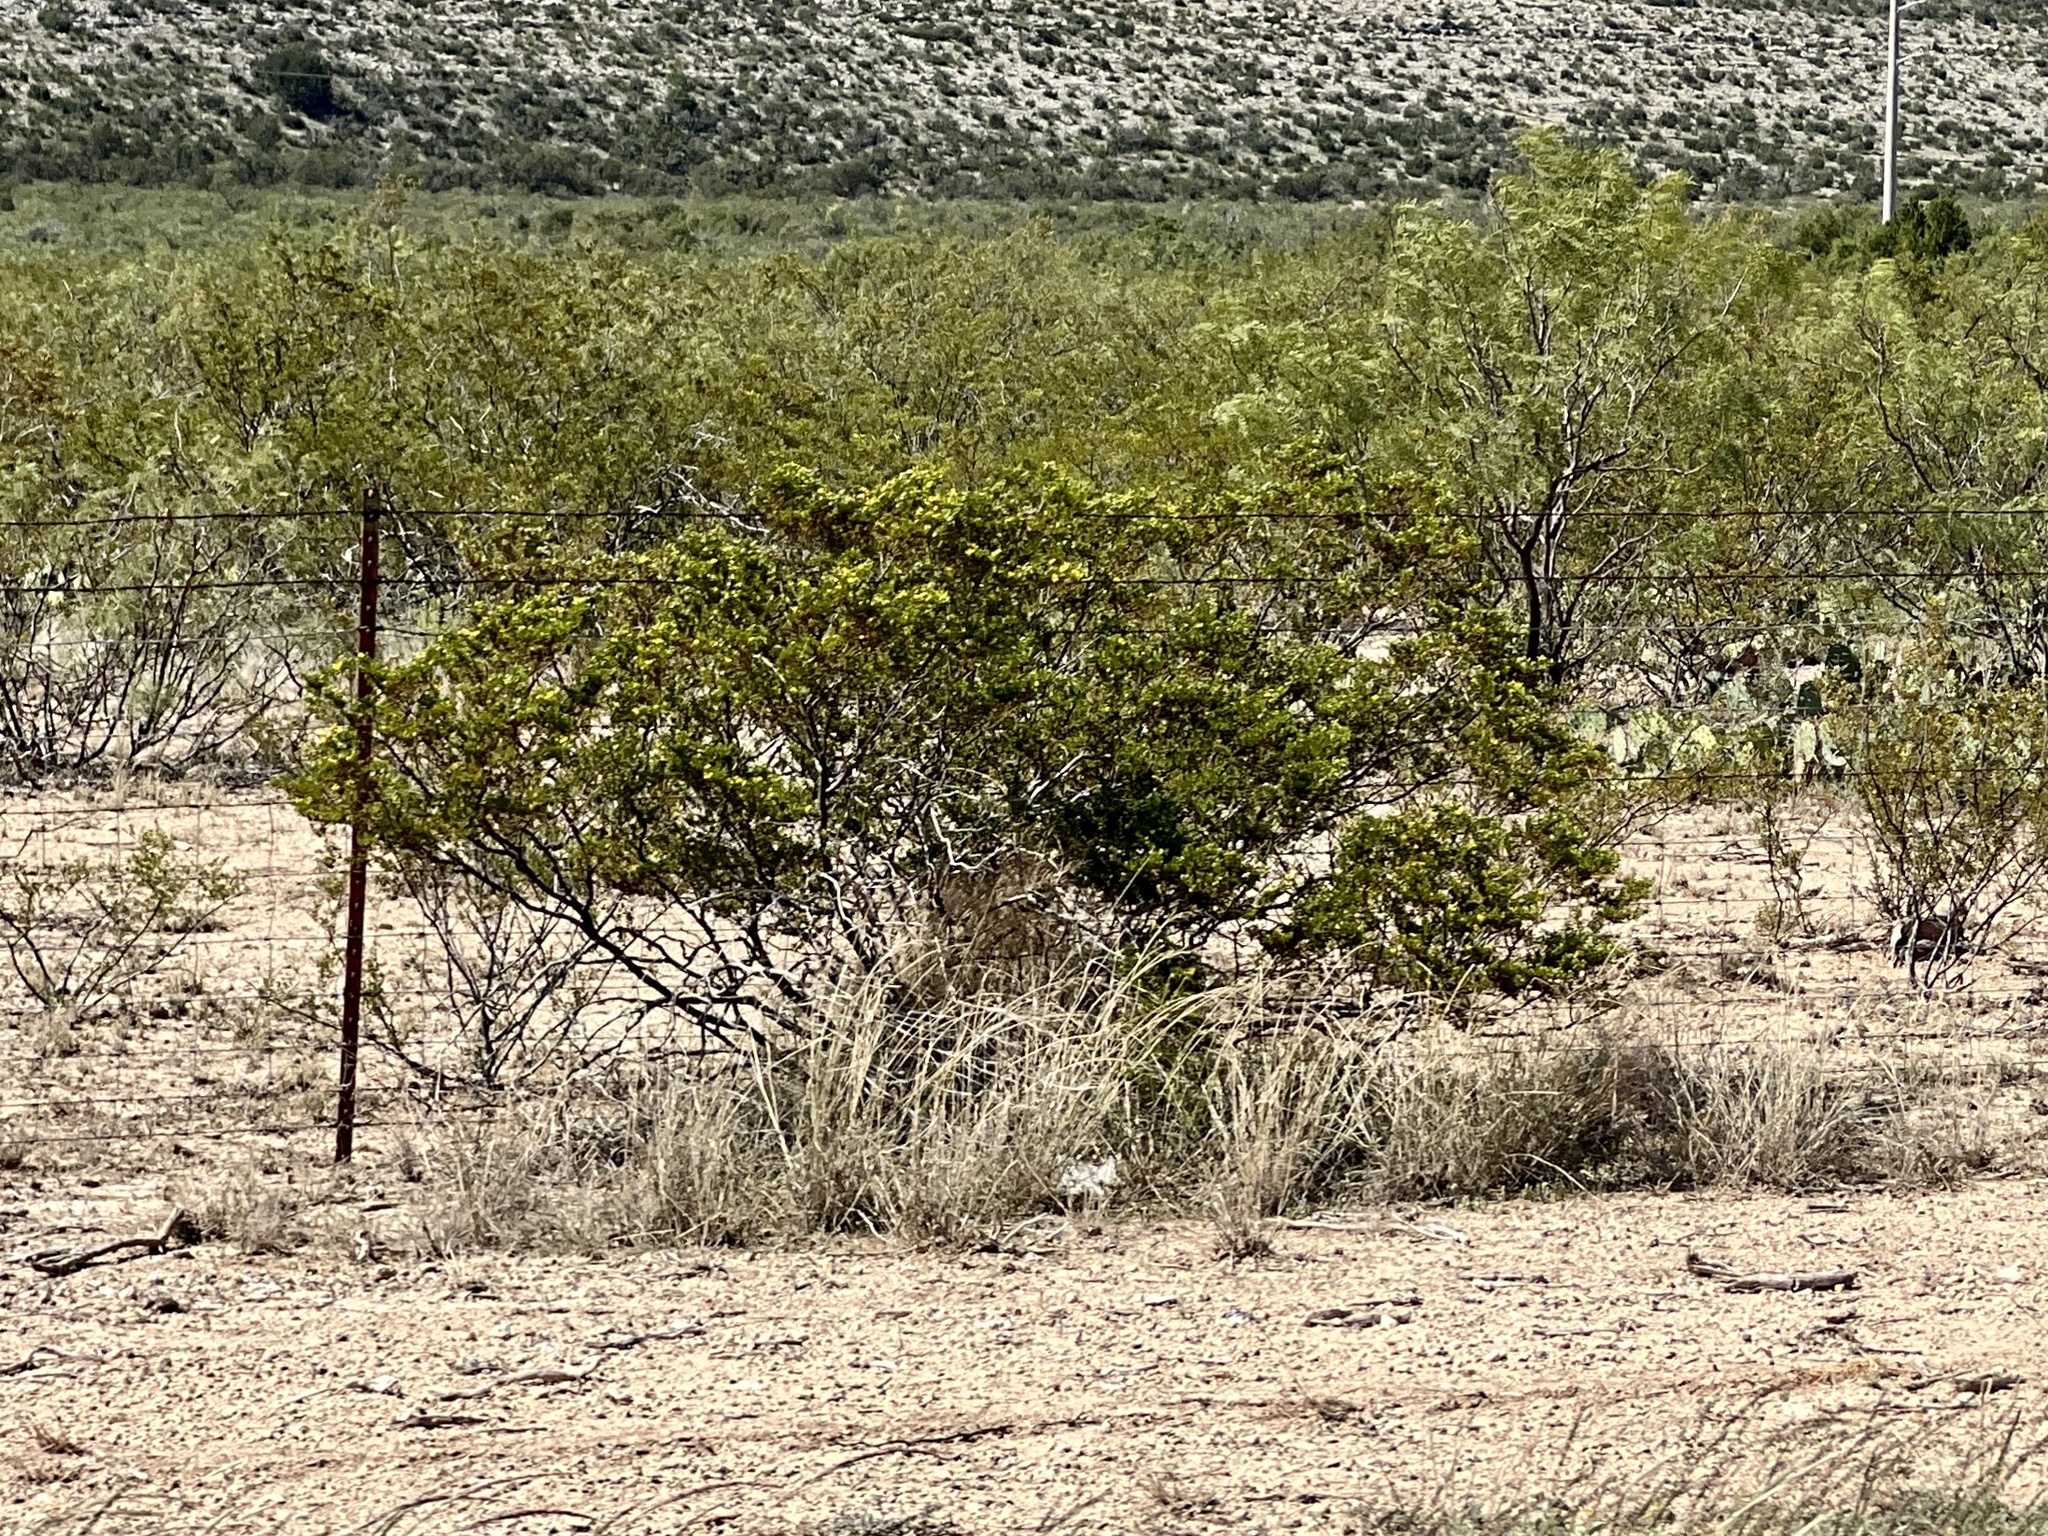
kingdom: Plantae
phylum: Tracheophyta
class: Magnoliopsida
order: Zygophyllales
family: Zygophyllaceae
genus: Larrea
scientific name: Larrea tridentata
